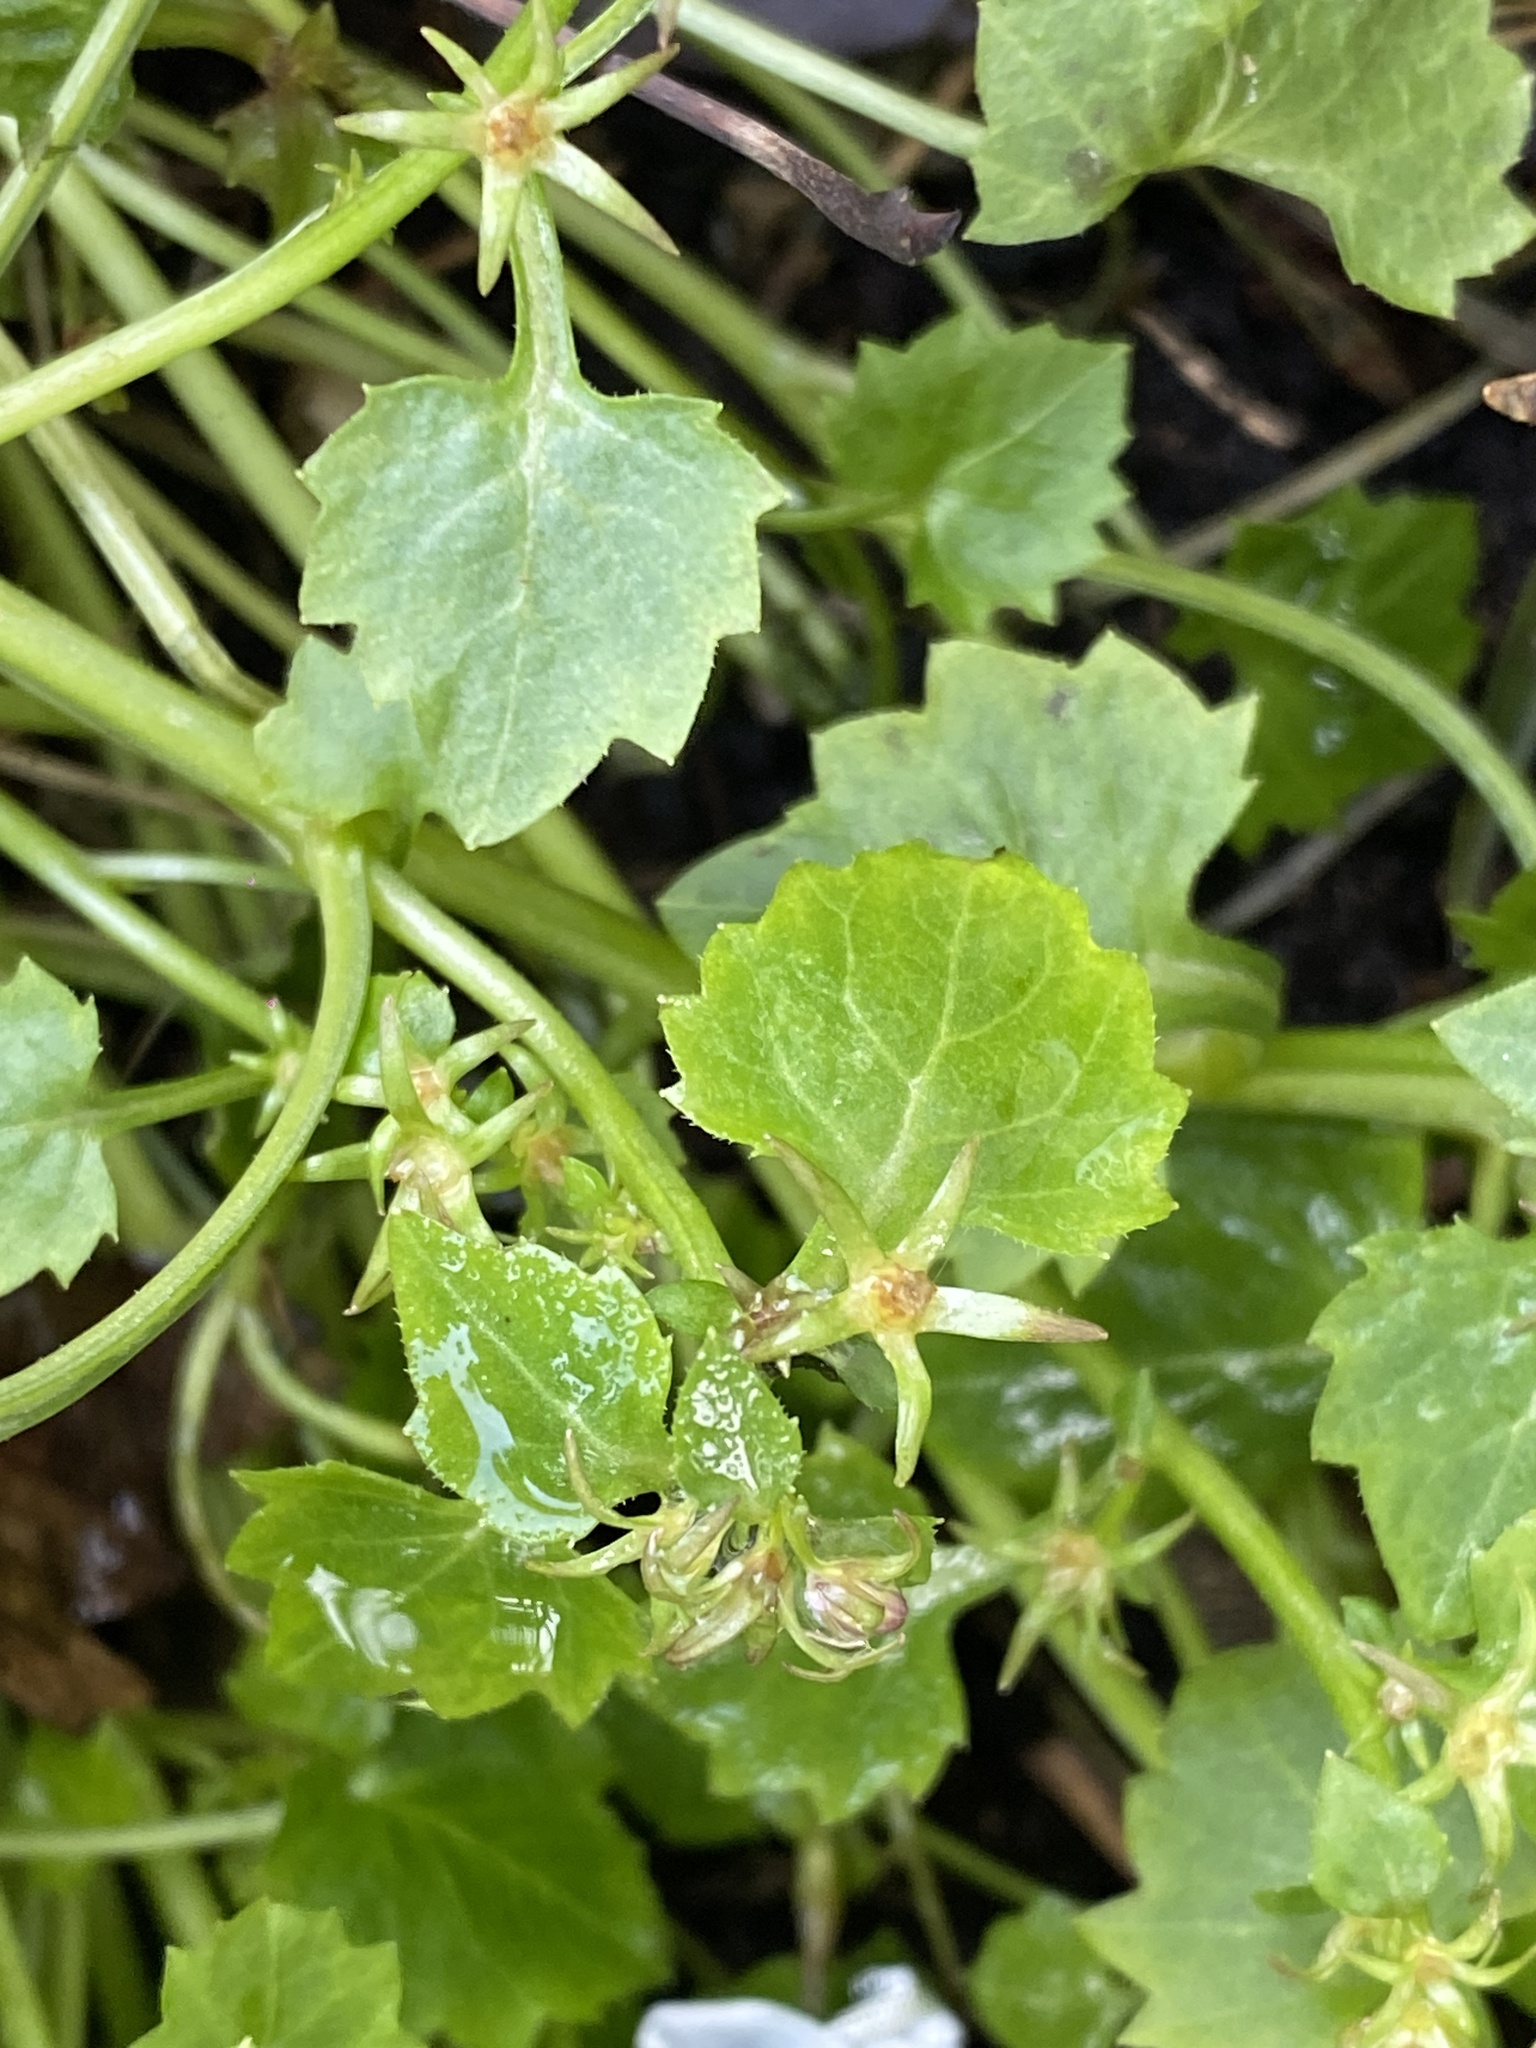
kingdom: Plantae
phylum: Tracheophyta
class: Magnoliopsida
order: Asterales
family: Campanulaceae
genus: Campanula
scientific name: Campanula portenschlagiana
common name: Adria bellflower
